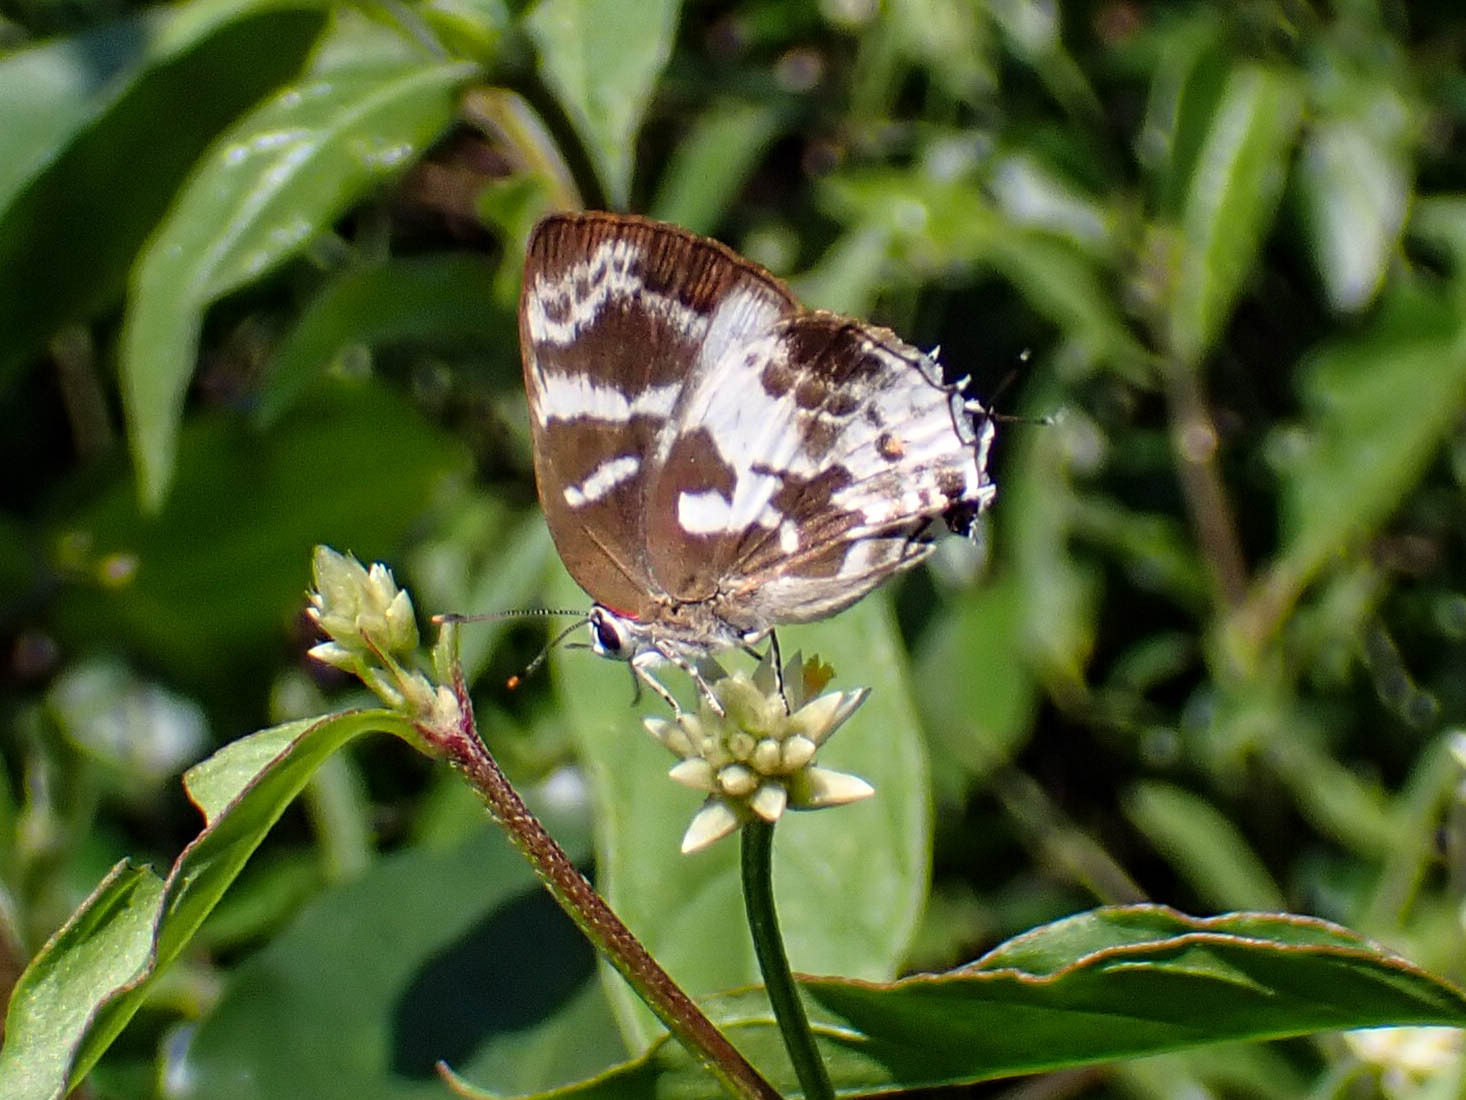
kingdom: Animalia
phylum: Arthropoda
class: Insecta
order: Lepidoptera
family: Lycaenidae
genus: Thereus
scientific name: Thereus lausus
